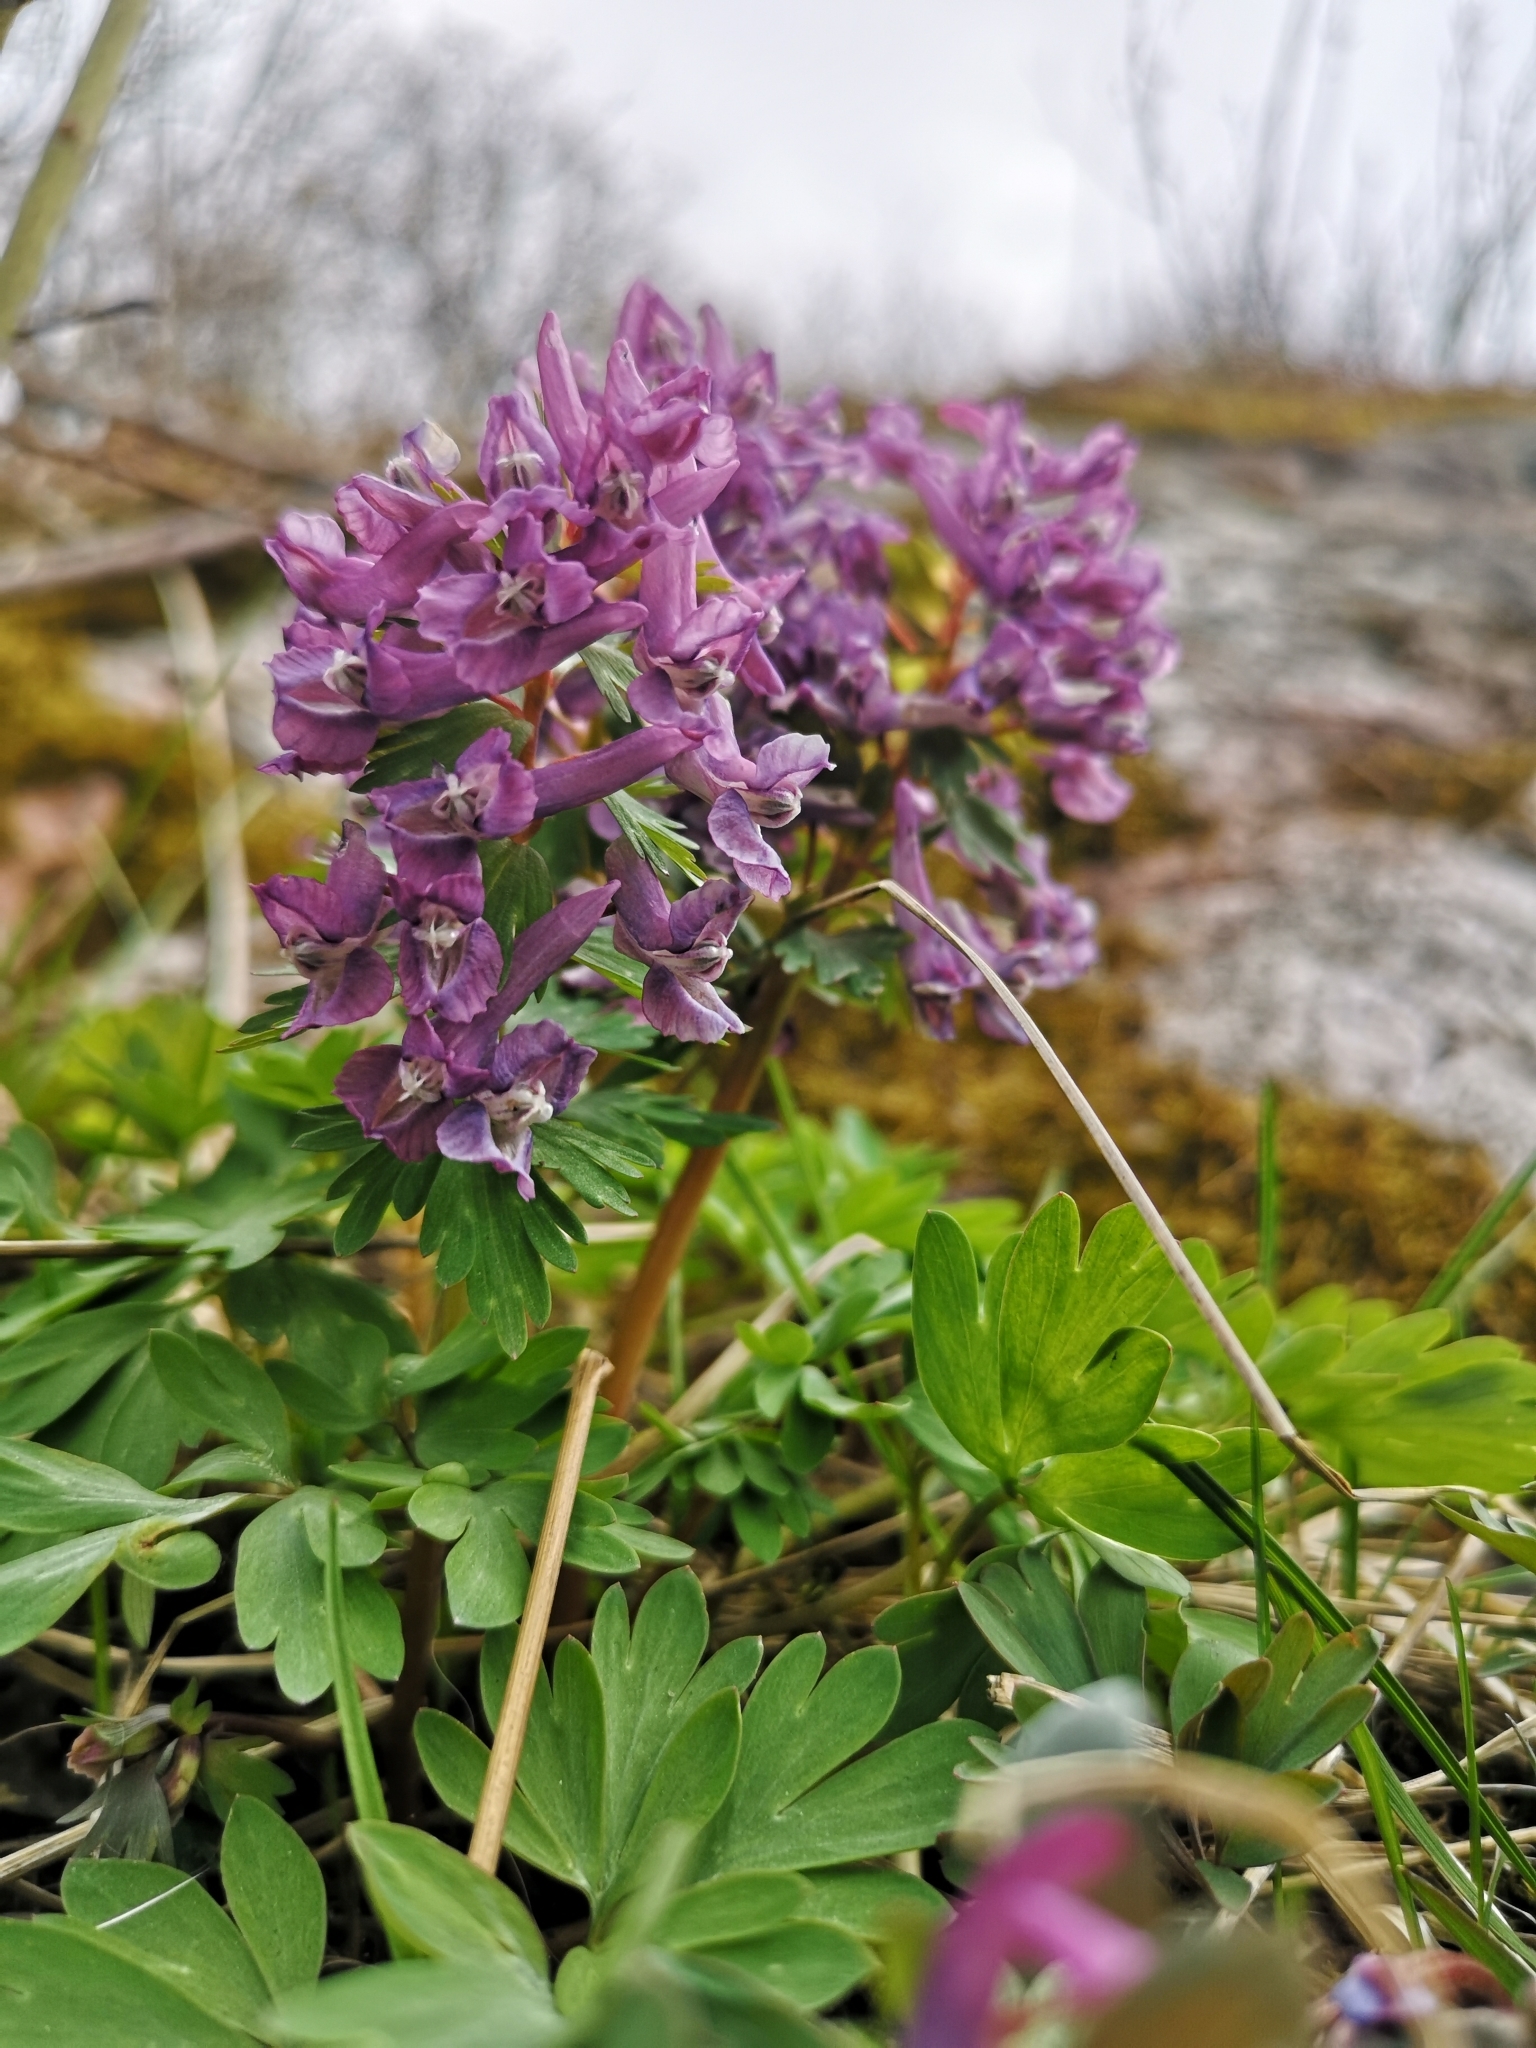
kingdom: Plantae
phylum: Tracheophyta
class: Magnoliopsida
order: Ranunculales
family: Papaveraceae
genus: Corydalis
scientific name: Corydalis solida
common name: Bird-in-a-bush
